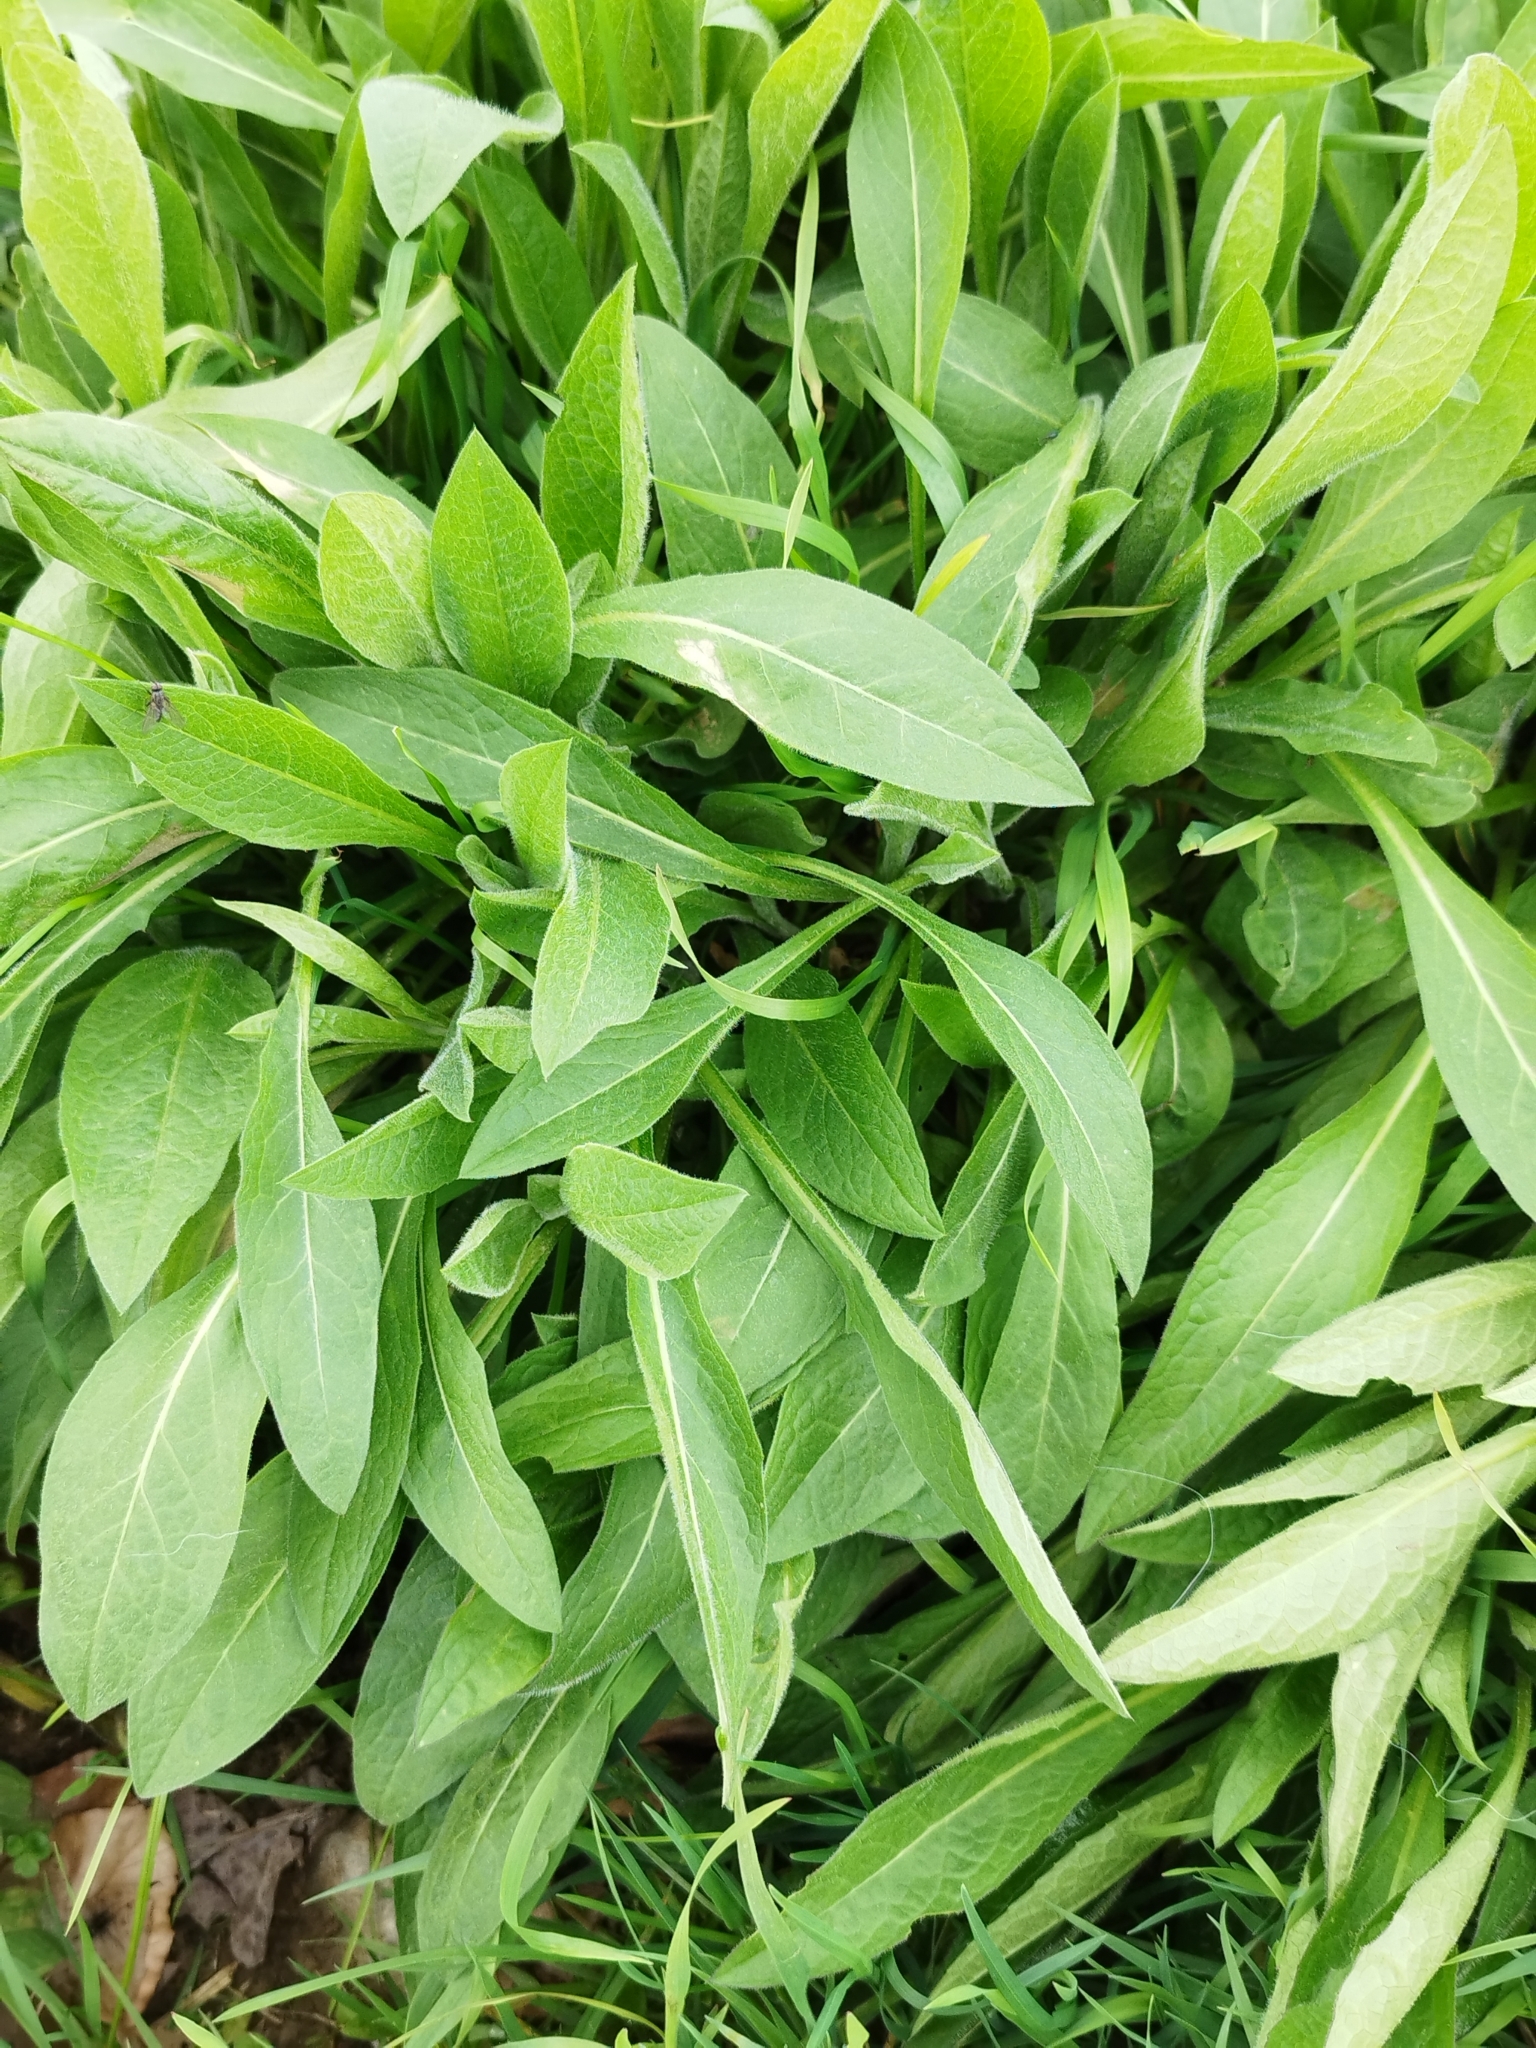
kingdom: Plantae
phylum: Tracheophyta
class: Magnoliopsida
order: Asterales
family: Asteraceae
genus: Centaurea
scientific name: Centaurea nigra
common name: Lesser knapweed
